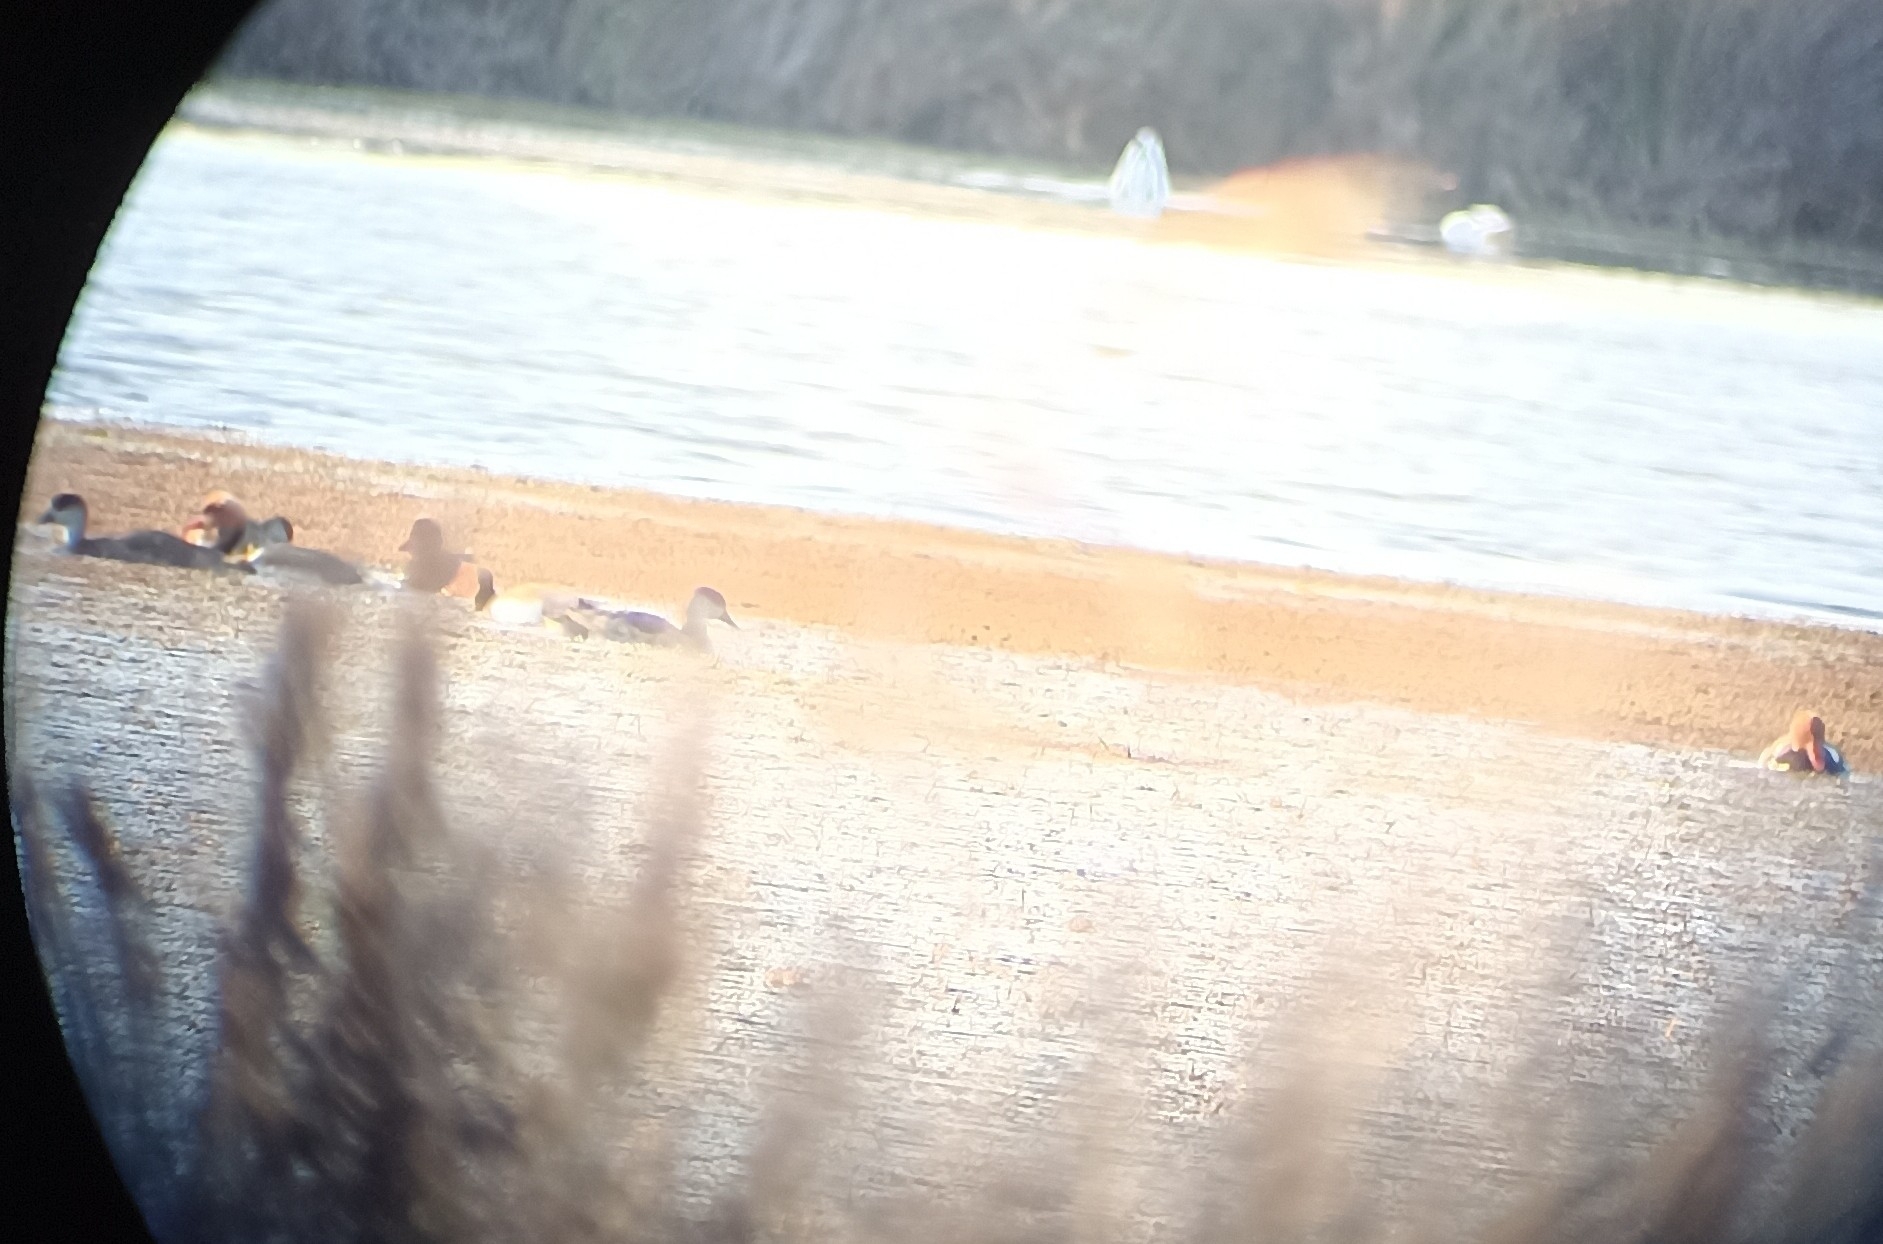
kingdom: Animalia
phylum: Chordata
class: Aves
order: Anseriformes
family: Anatidae
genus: Netta
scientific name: Netta rufina
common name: Red-crested pochard
